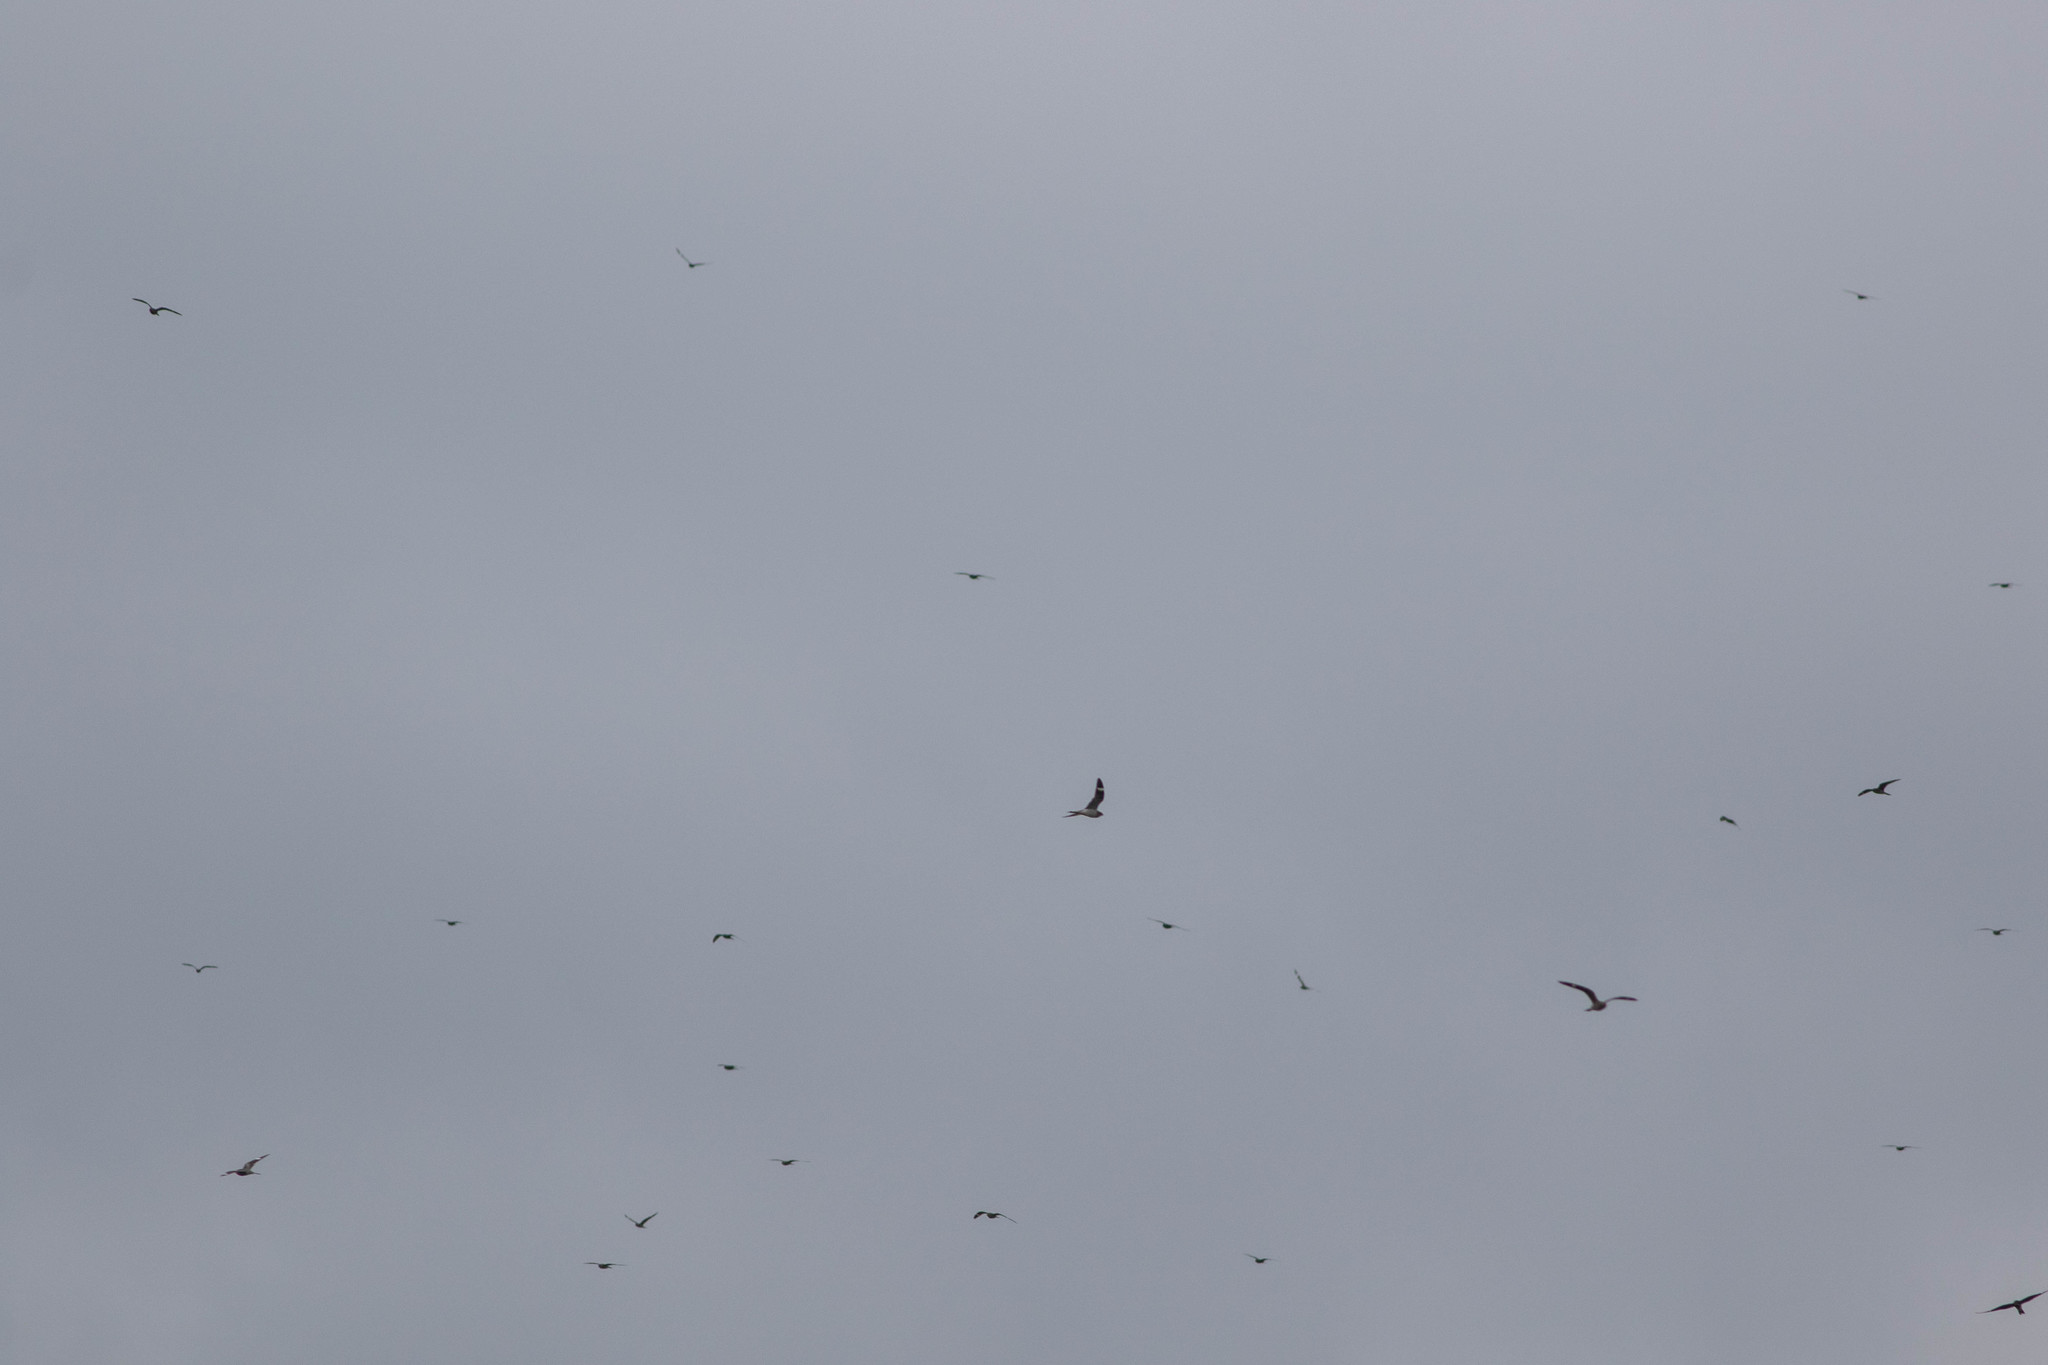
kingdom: Animalia
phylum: Chordata
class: Aves
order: Caprimulgiformes
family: Caprimulgidae
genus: Chordeiles
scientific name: Chordeiles minor
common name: Common nighthawk
